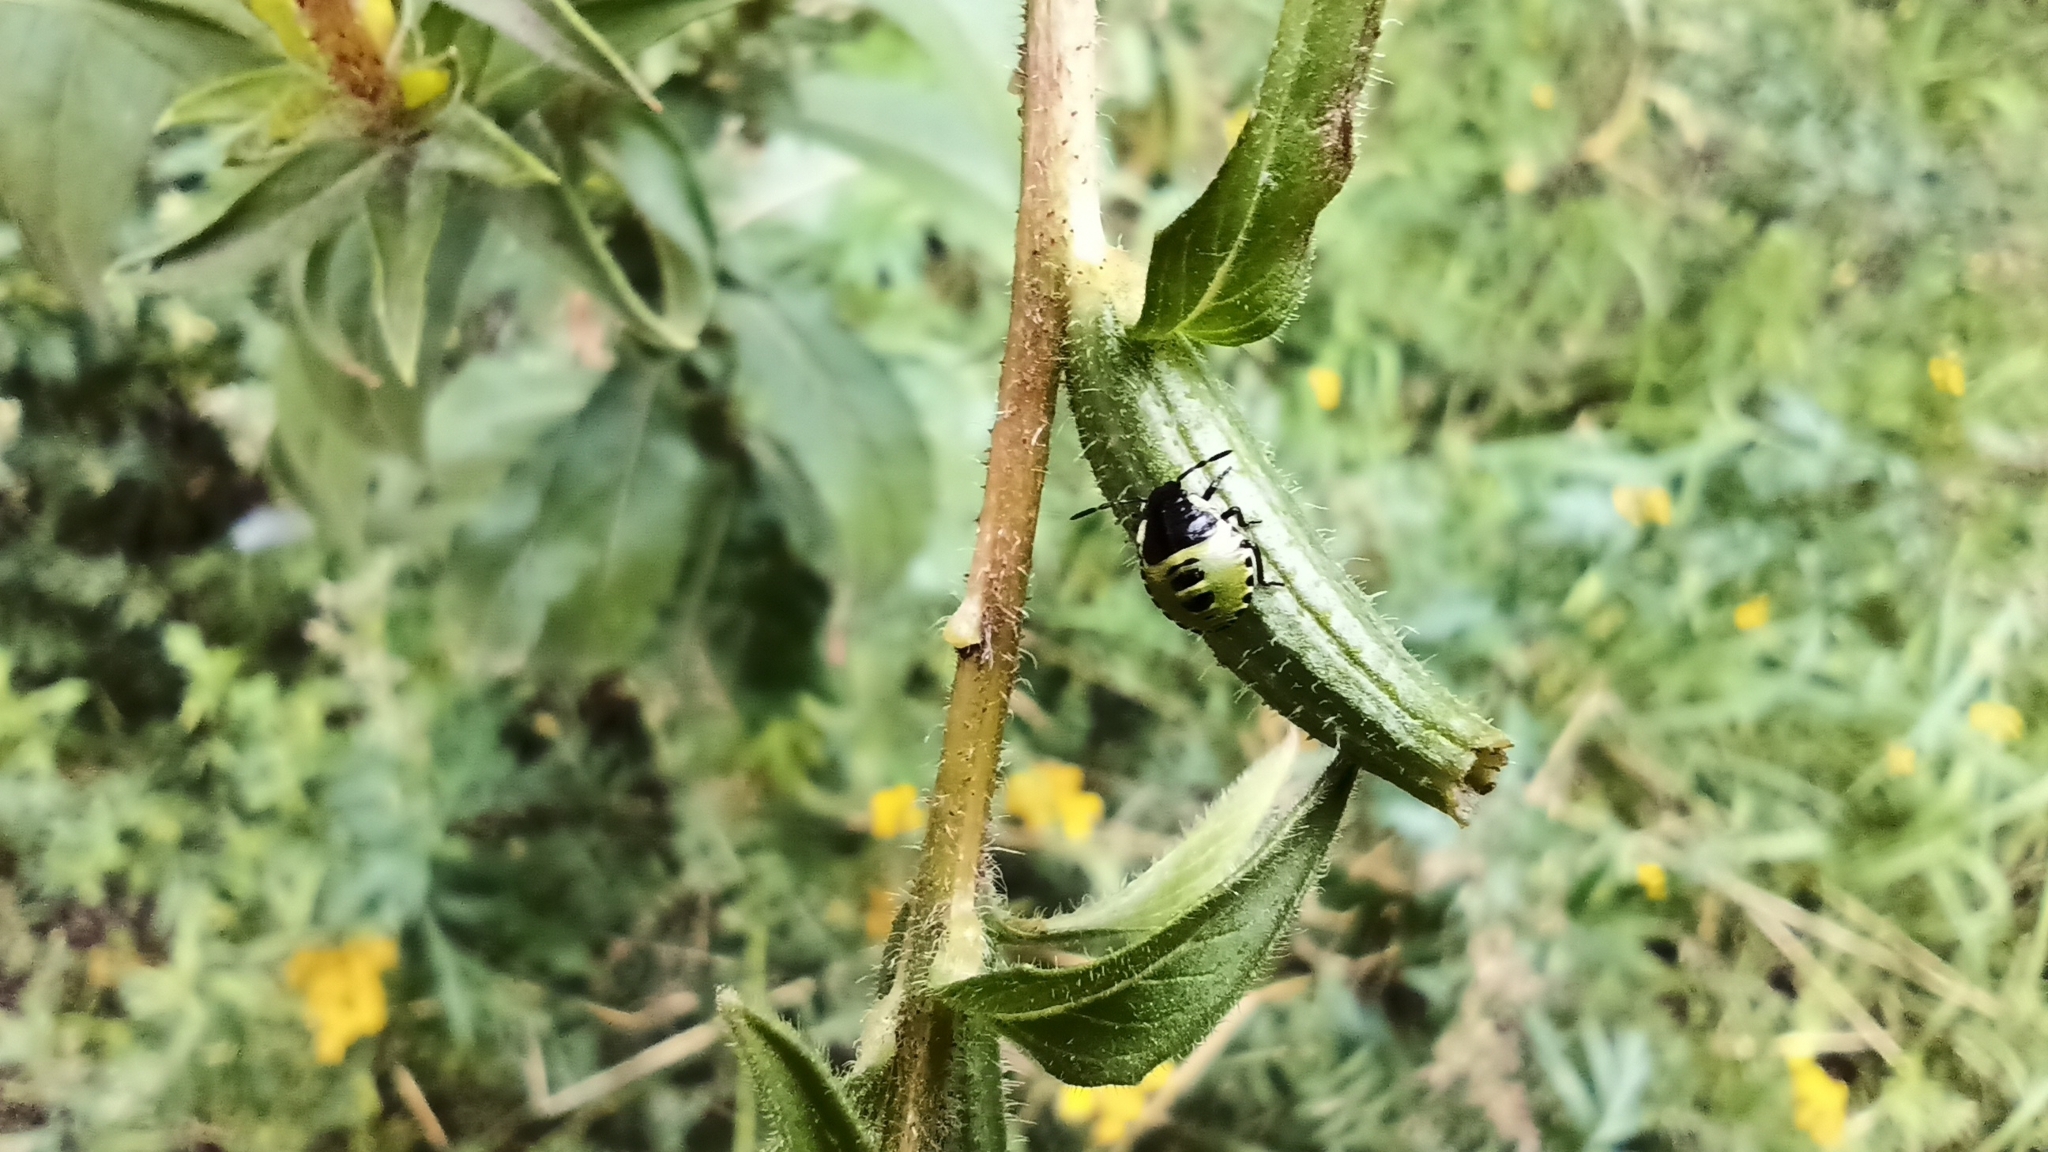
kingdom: Animalia
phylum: Arthropoda
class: Insecta
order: Hemiptera
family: Pentatomidae
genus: Palomena
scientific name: Palomena prasina
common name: Green shieldbug
